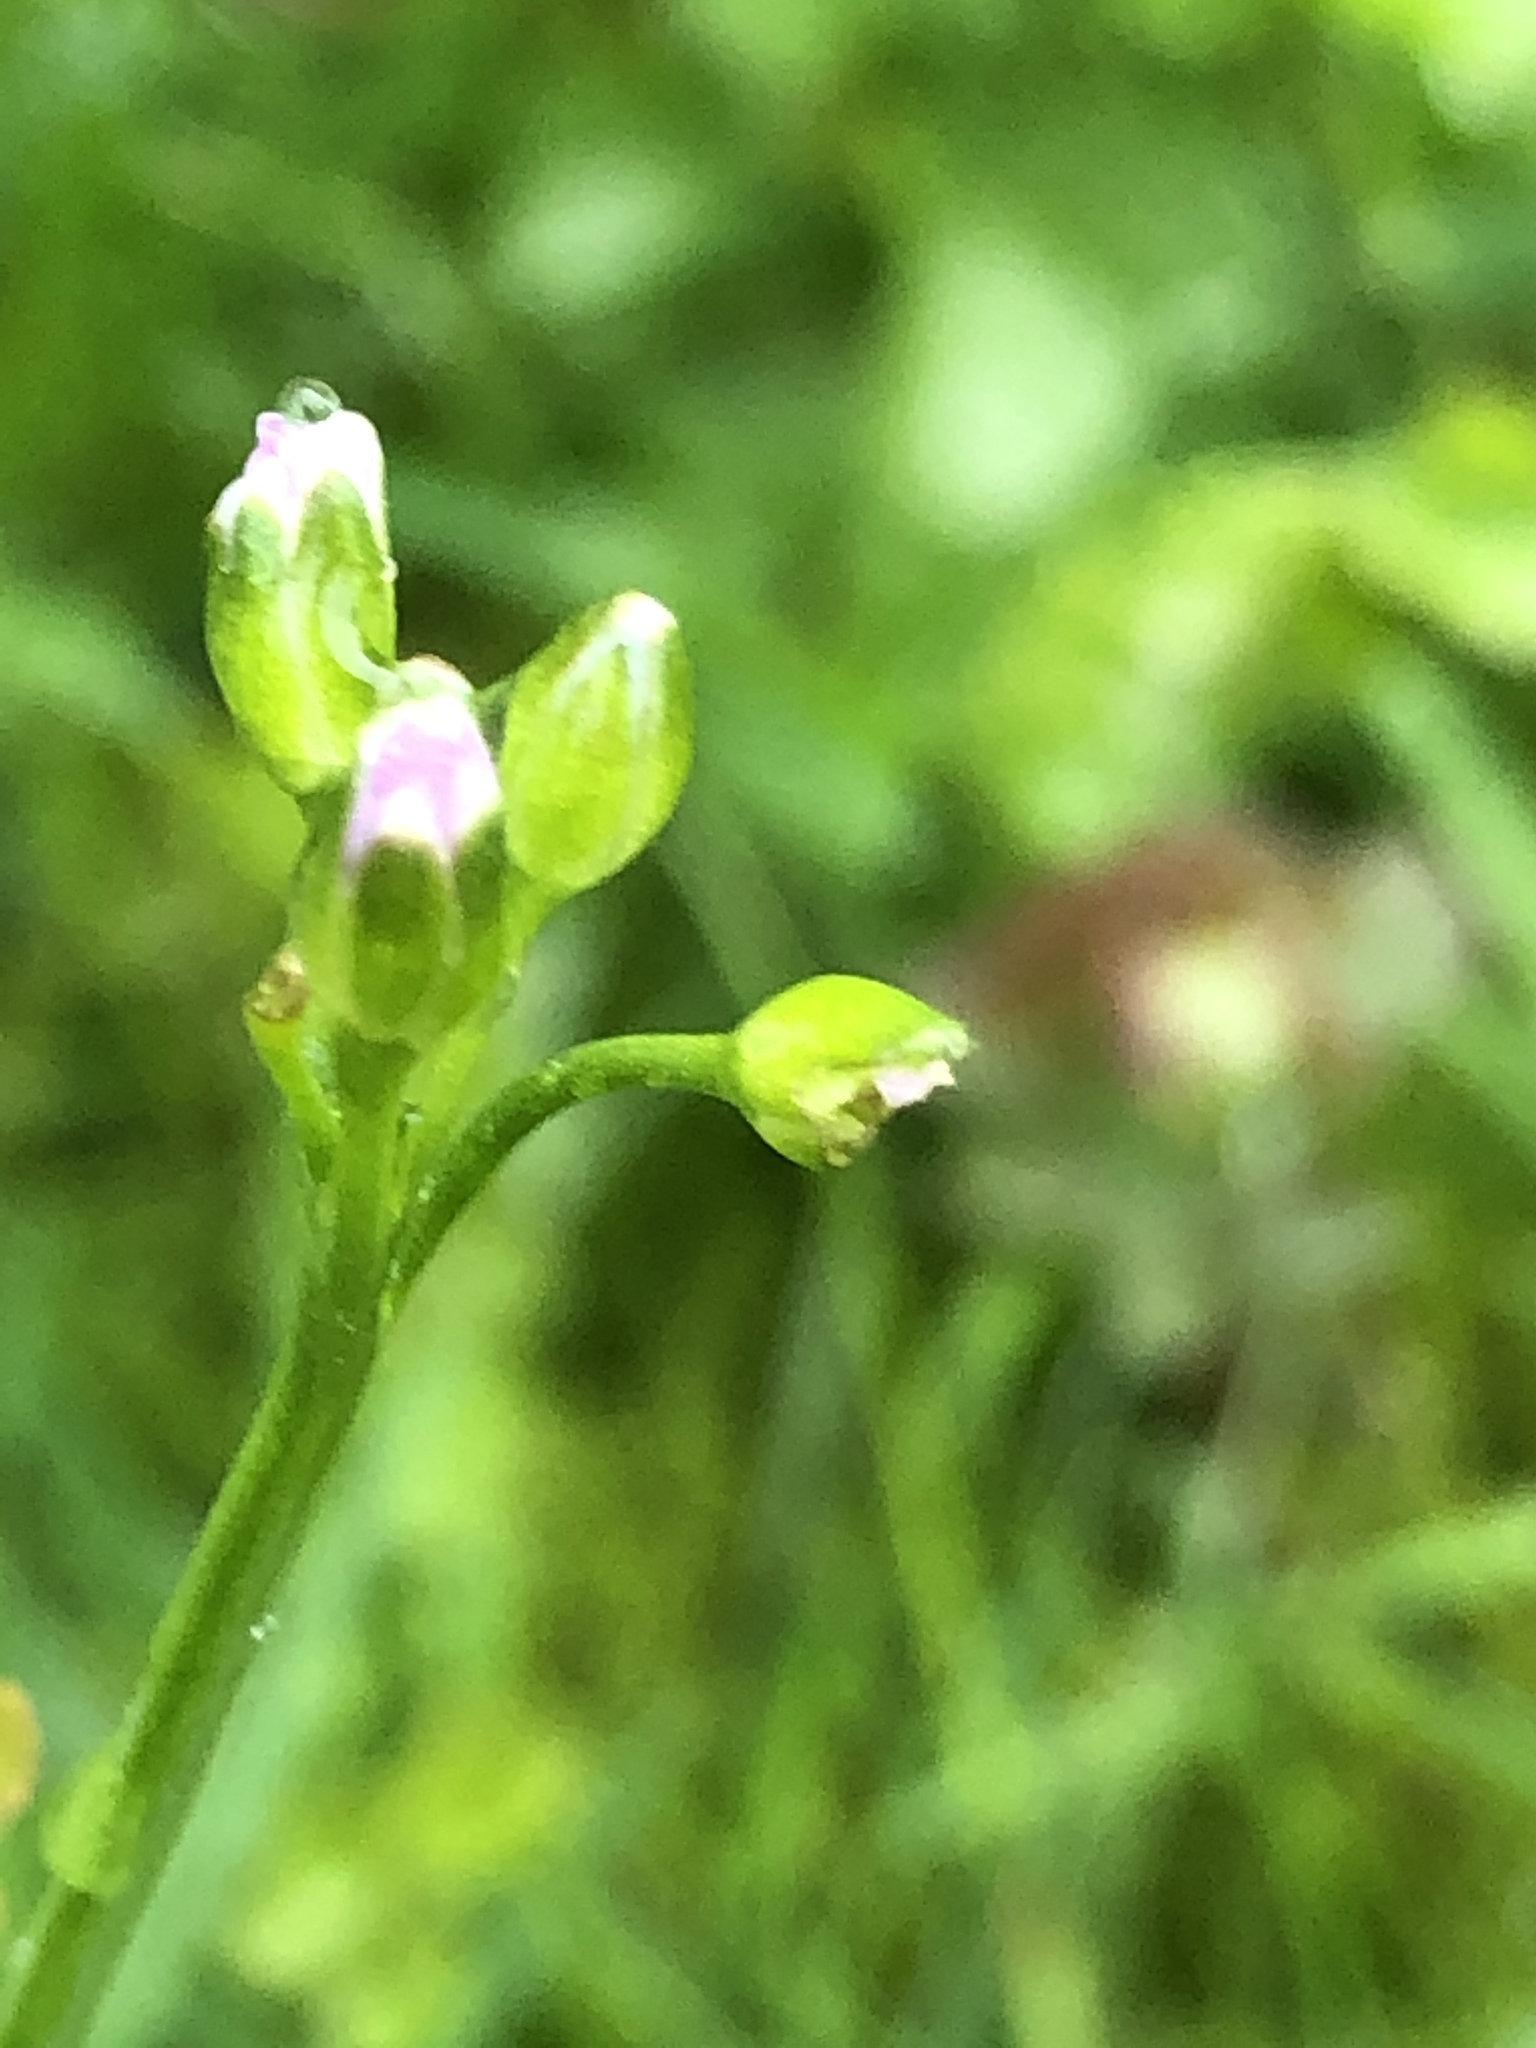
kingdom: Plantae
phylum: Tracheophyta
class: Magnoliopsida
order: Brassicales
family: Brassicaceae
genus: Cardamine
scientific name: Cardamine pratensis
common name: Cuckoo flower
